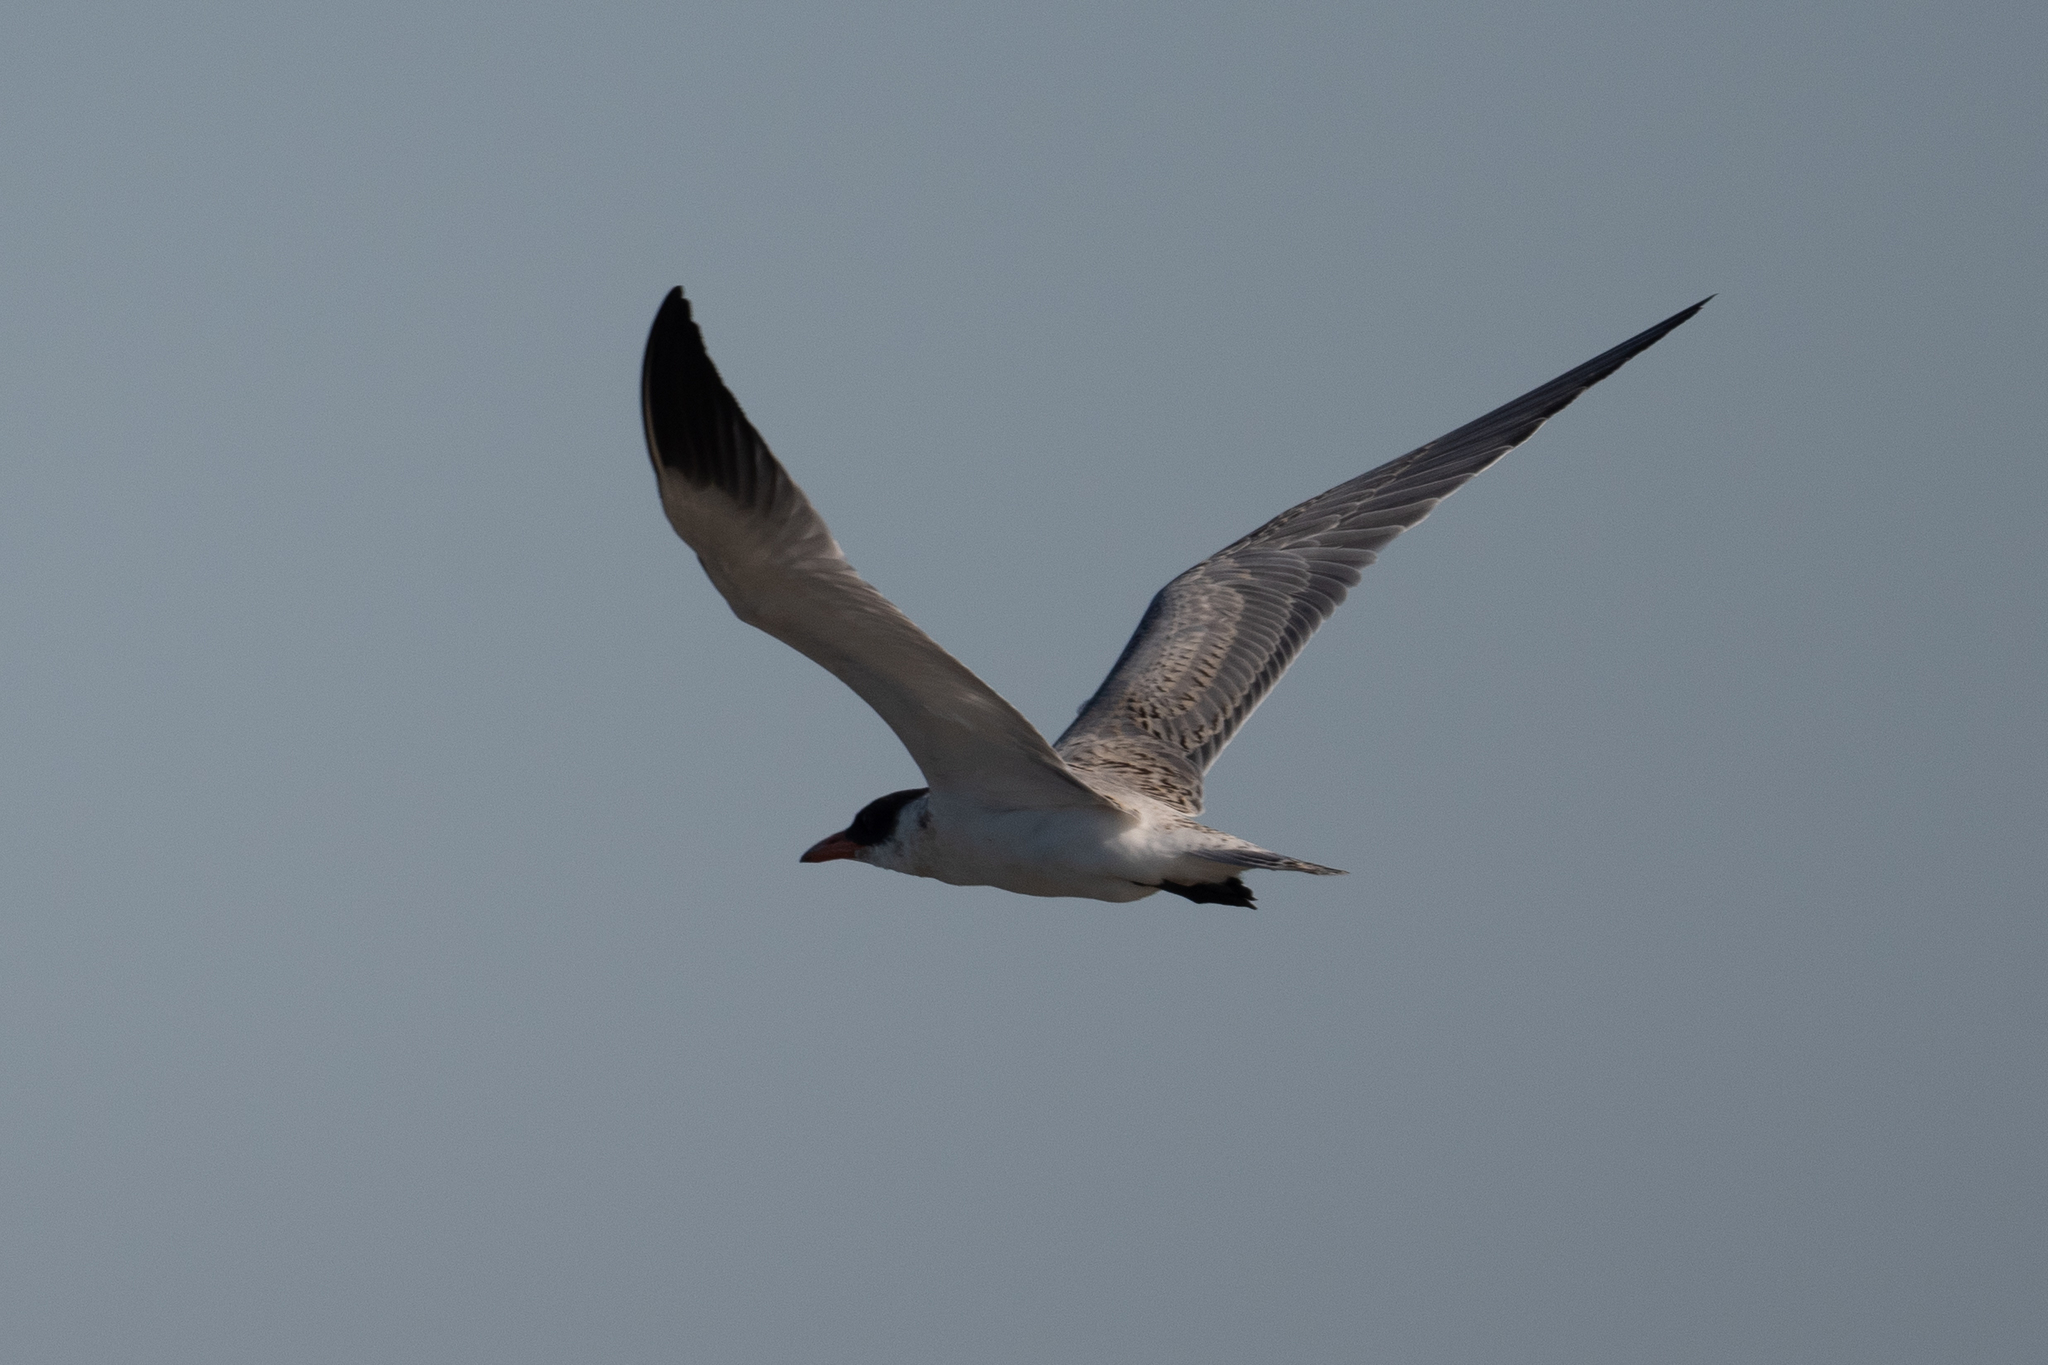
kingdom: Animalia
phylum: Chordata
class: Aves
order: Charadriiformes
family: Laridae
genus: Hydroprogne
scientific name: Hydroprogne caspia
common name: Caspian tern
